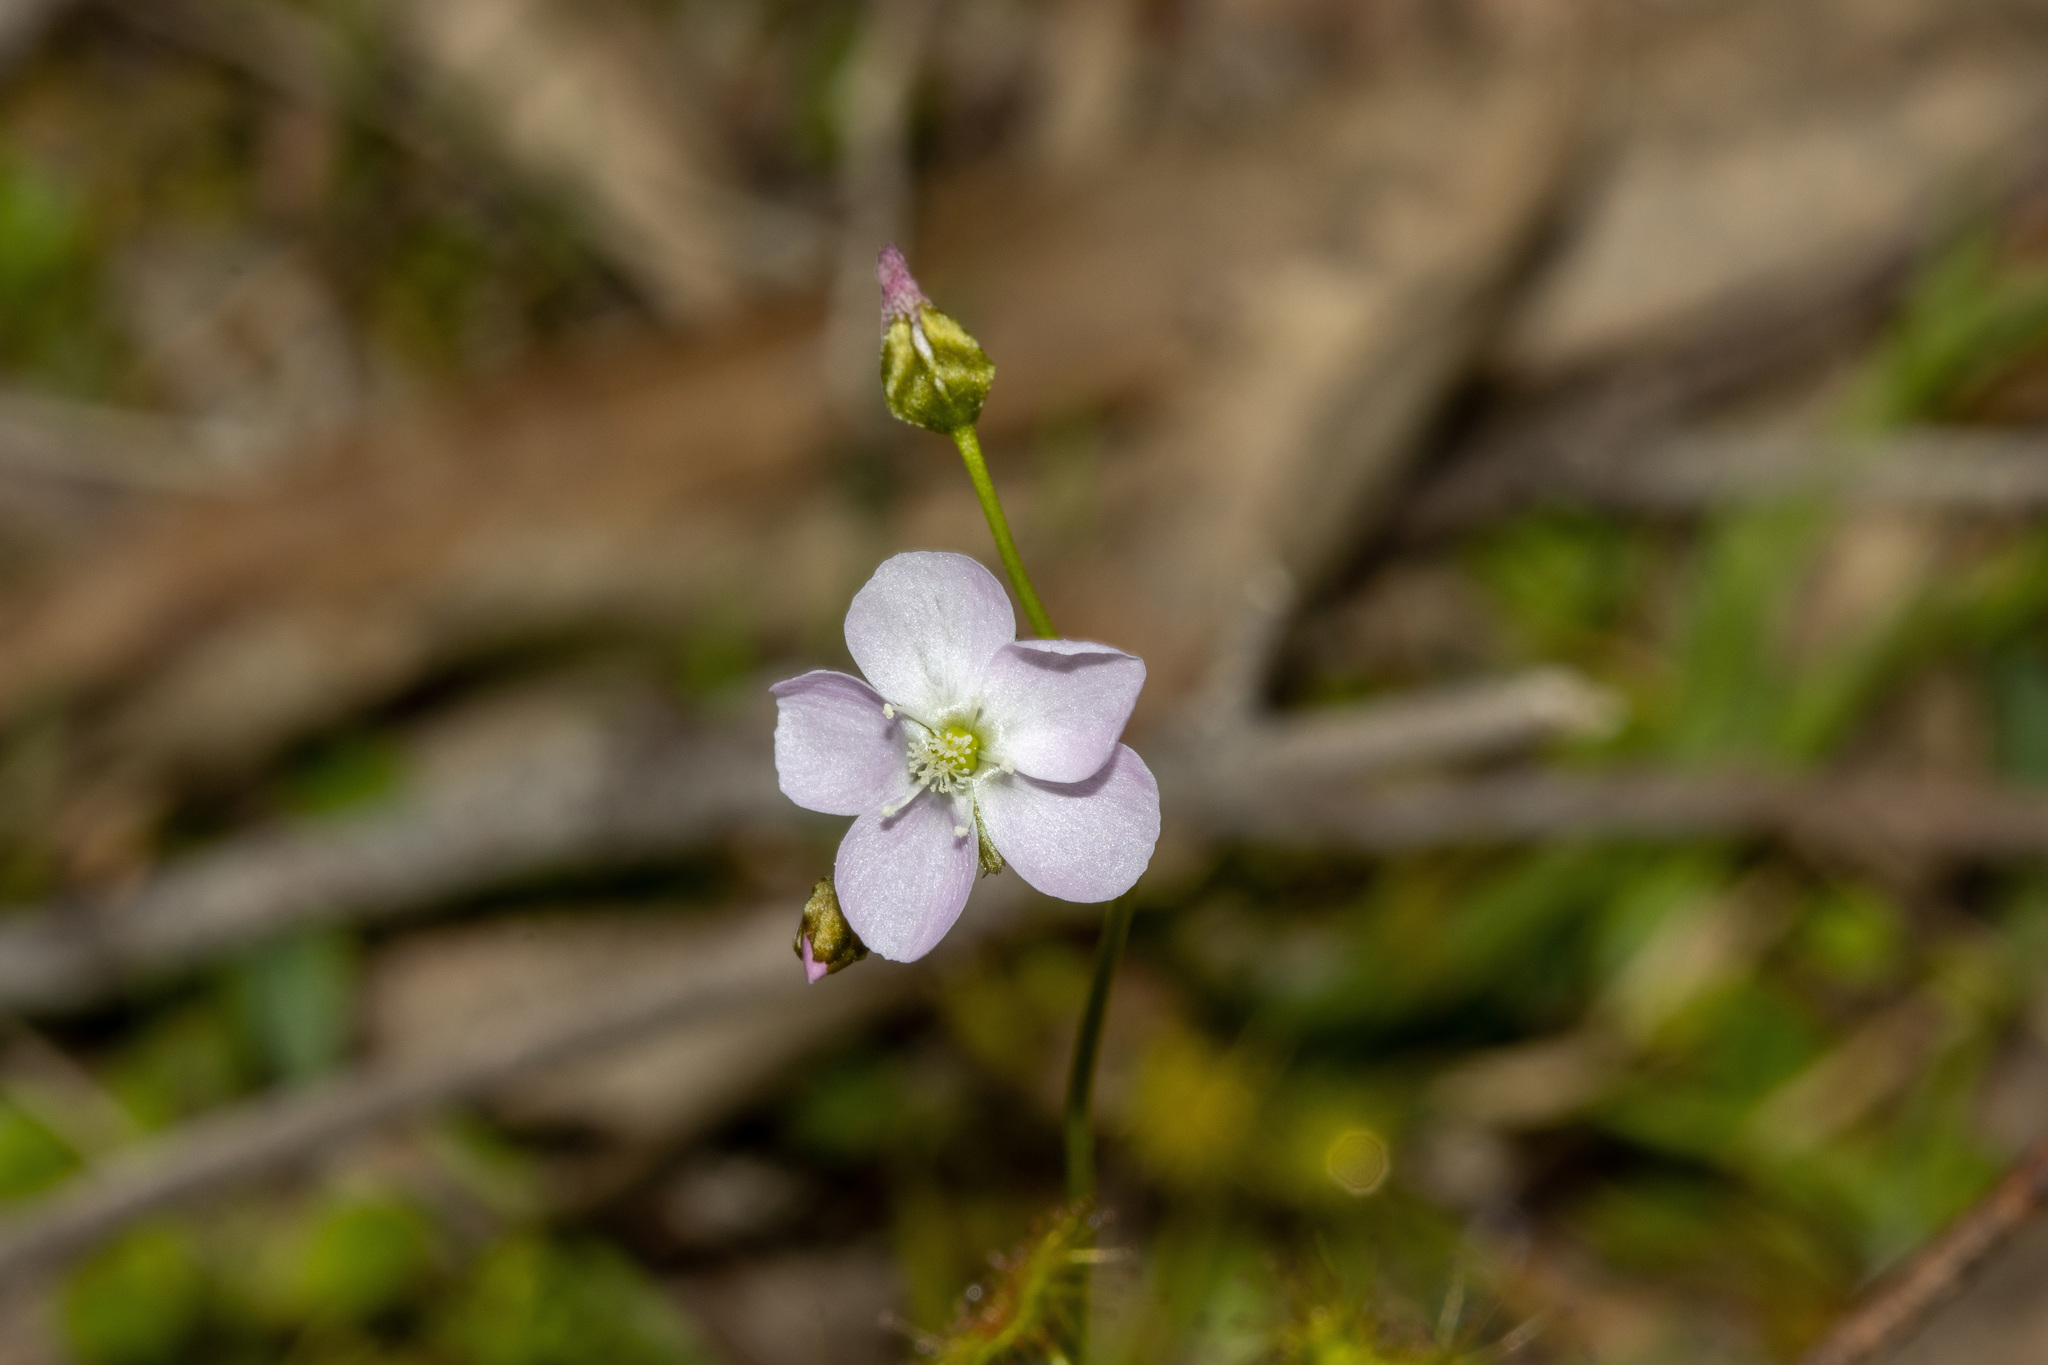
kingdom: Plantae
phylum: Tracheophyta
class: Magnoliopsida
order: Caryophyllales
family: Droseraceae
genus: Drosera
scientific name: Drosera peltata
